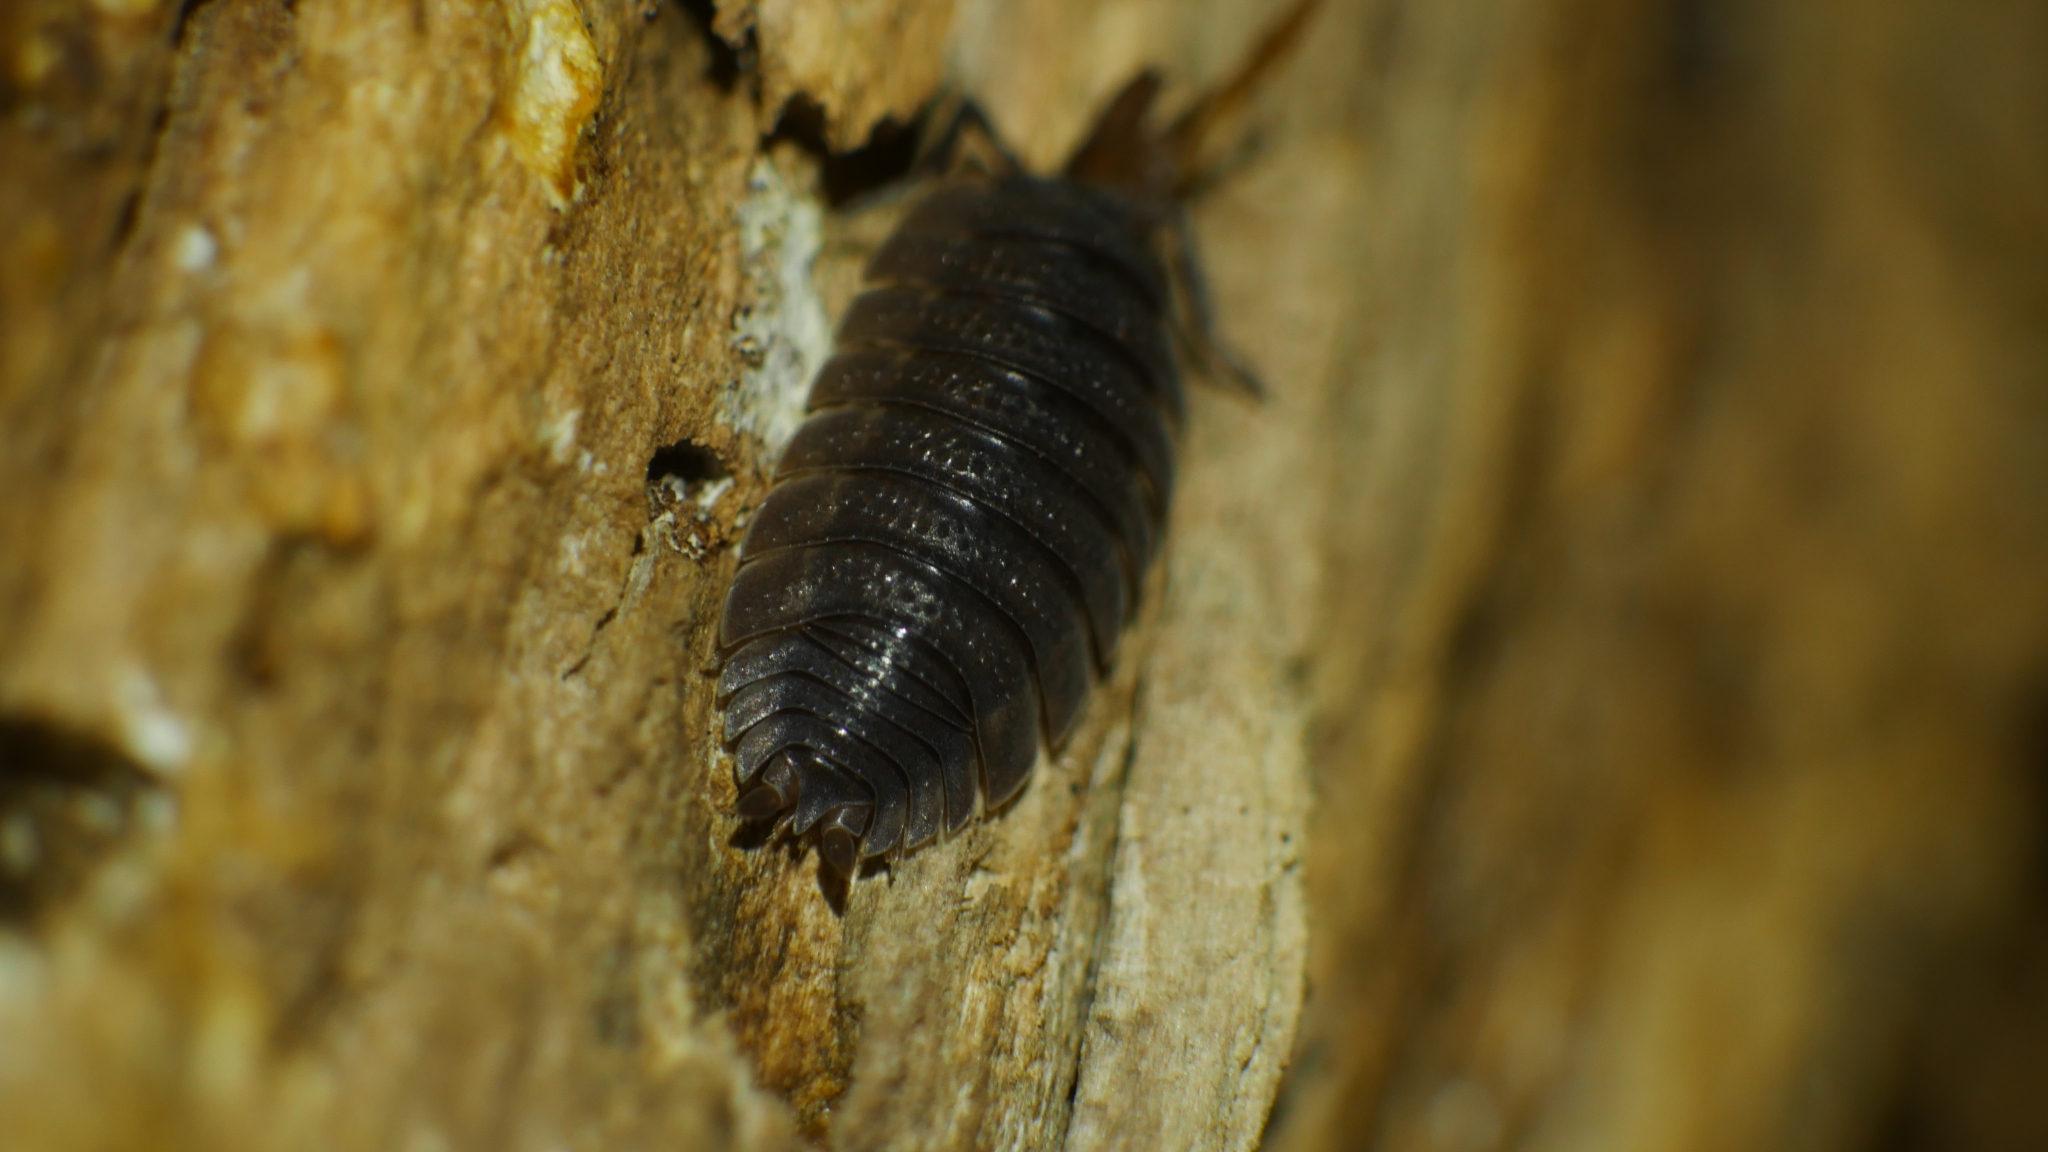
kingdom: Animalia
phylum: Arthropoda
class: Malacostraca
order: Isopoda
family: Porcellionidae
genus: Porcellio
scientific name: Porcellio scaber
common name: Common rough woodlouse
